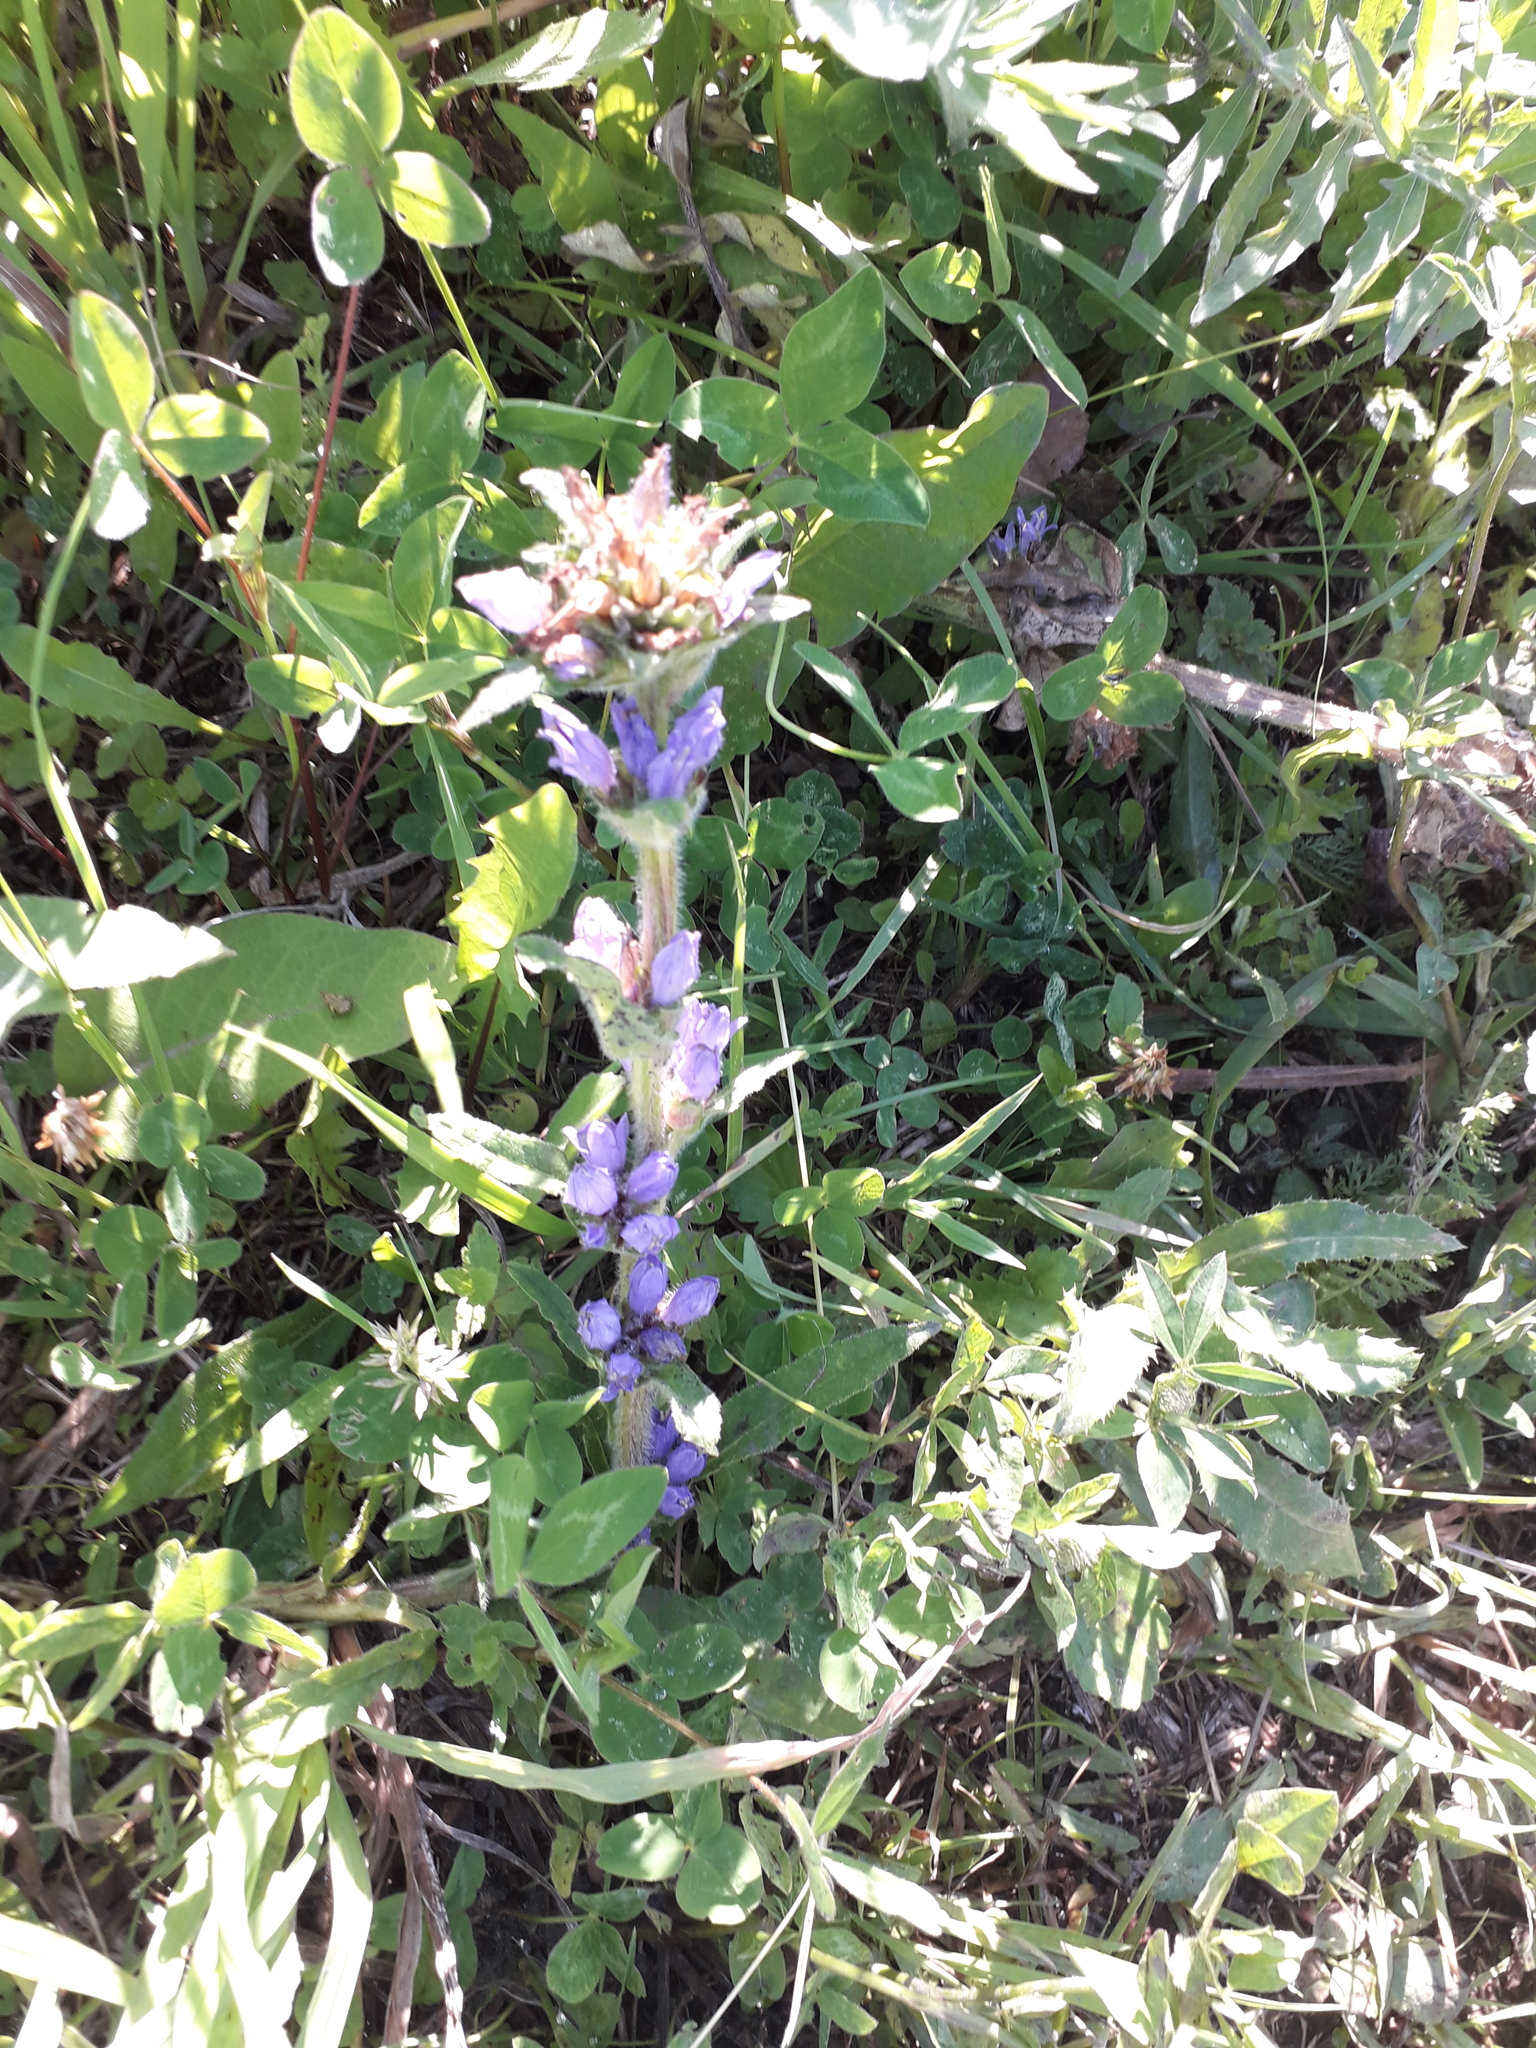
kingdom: Plantae
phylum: Tracheophyta
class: Magnoliopsida
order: Asterales
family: Campanulaceae
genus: Campanula
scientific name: Campanula cervicaria
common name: Bristly bellflower
